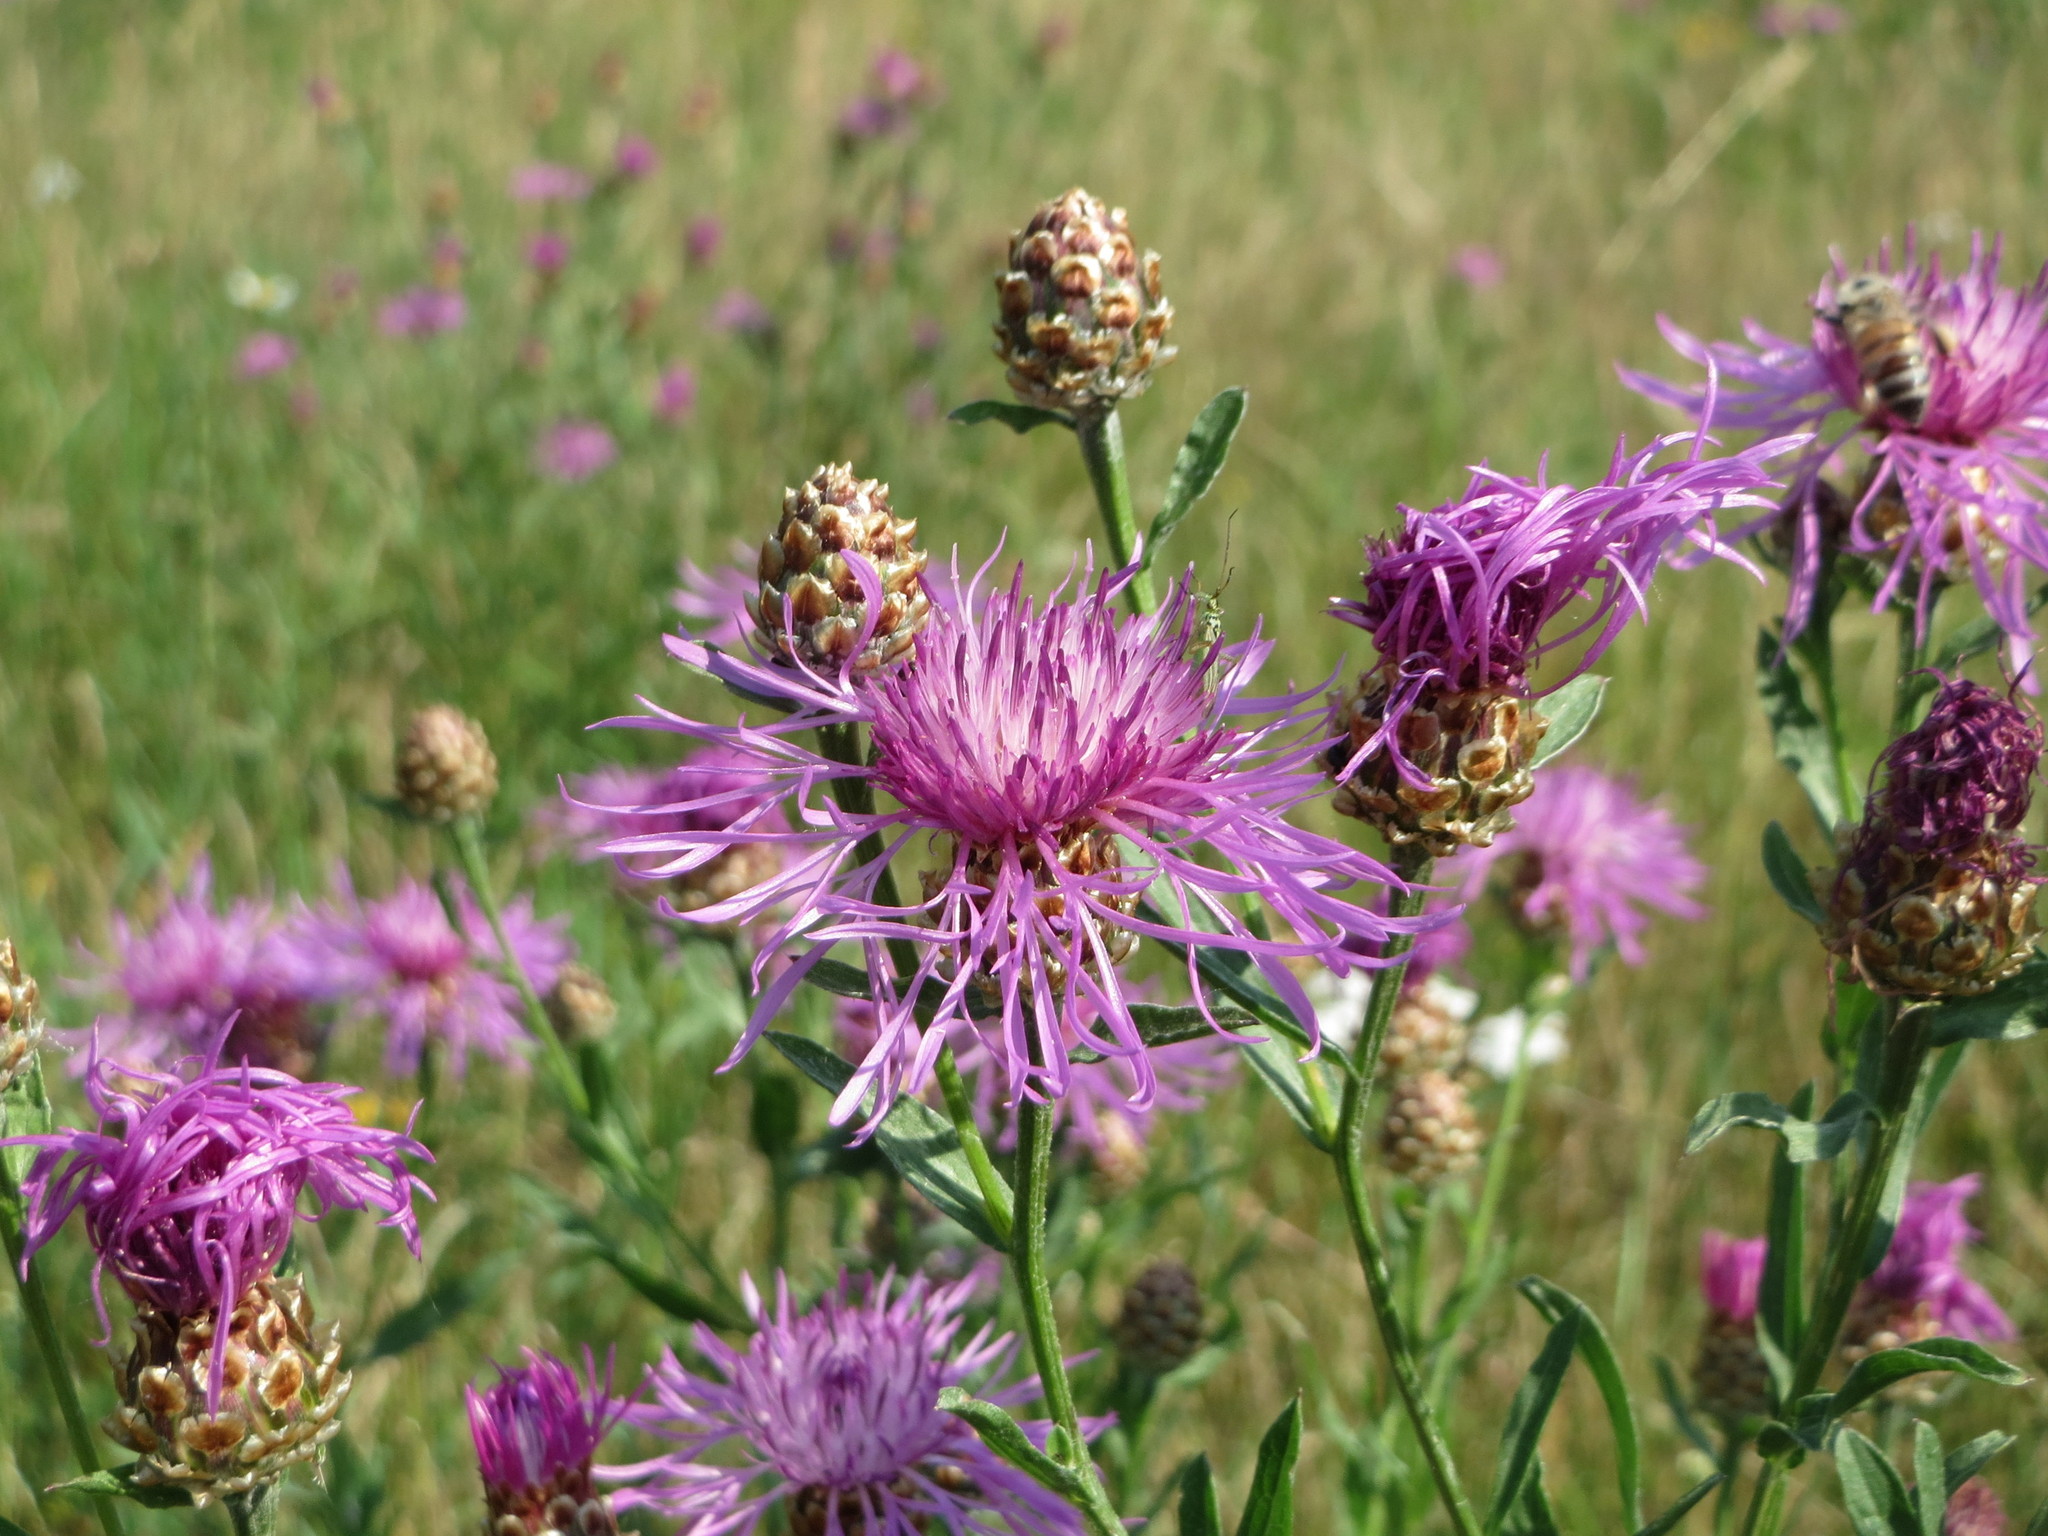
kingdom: Plantae
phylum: Tracheophyta
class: Magnoliopsida
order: Asterales
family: Asteraceae
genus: Centaurea
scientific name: Centaurea jacea
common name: Brown knapweed
